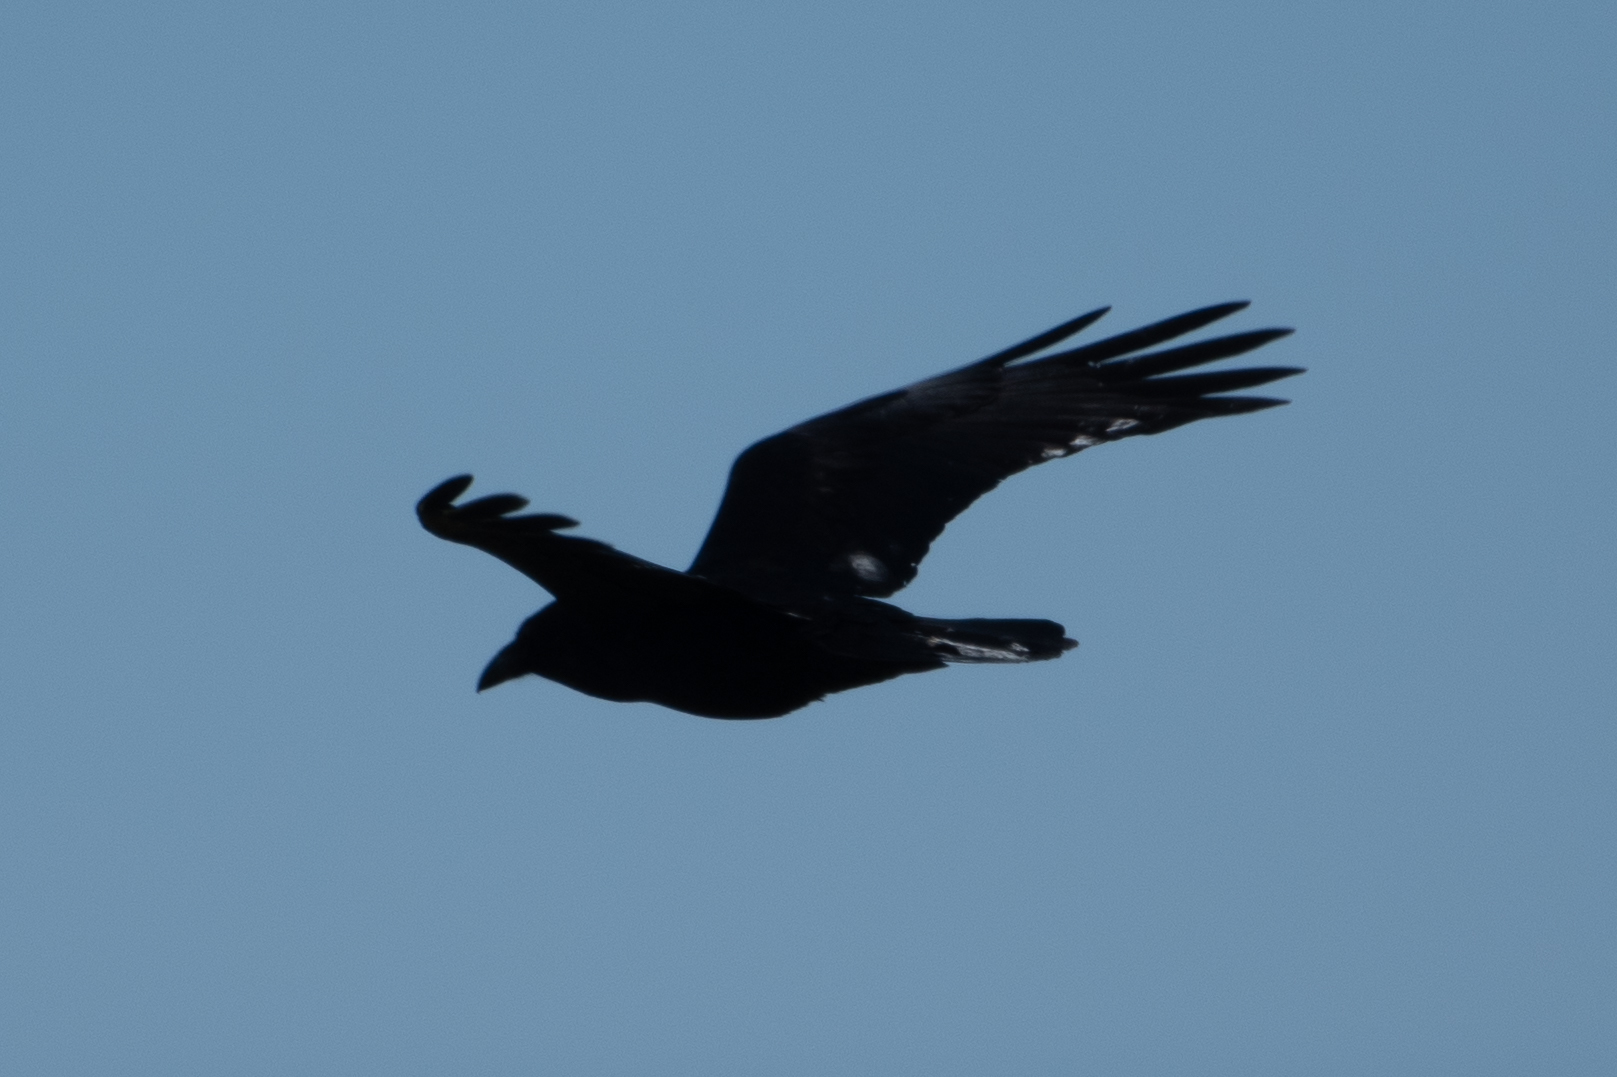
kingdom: Animalia
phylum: Chordata
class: Aves
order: Passeriformes
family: Corvidae
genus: Corvus
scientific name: Corvus corax
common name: Common raven
